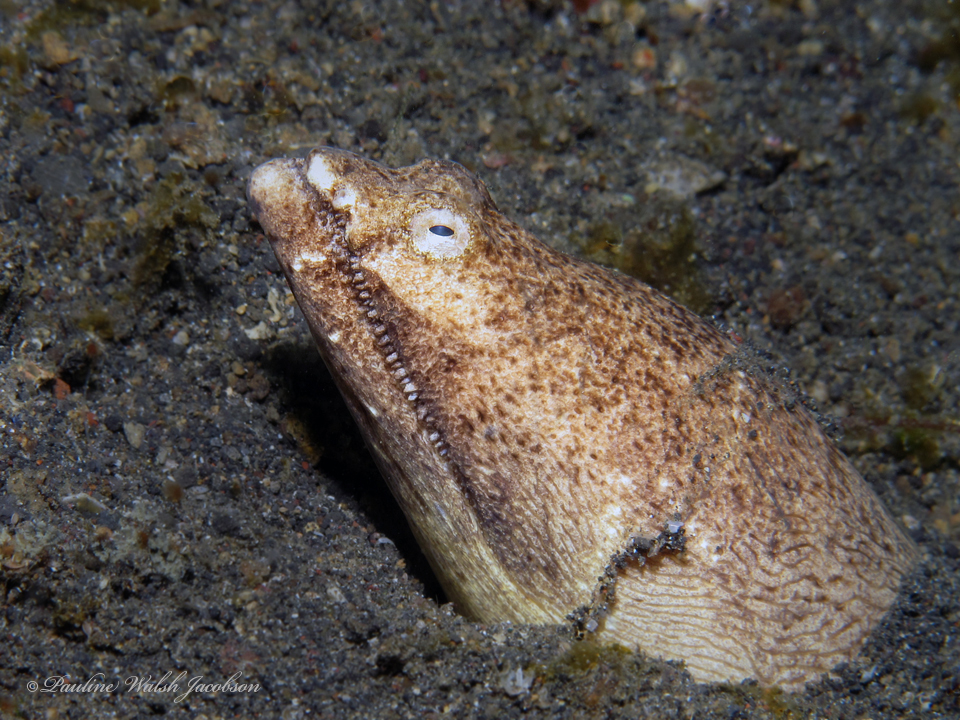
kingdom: Animalia
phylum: Chordata
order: Anguilliformes
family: Ophichthidae
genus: Brachysomophis
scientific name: Brachysomophis cirrocheilos
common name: Stargazer snake eel
